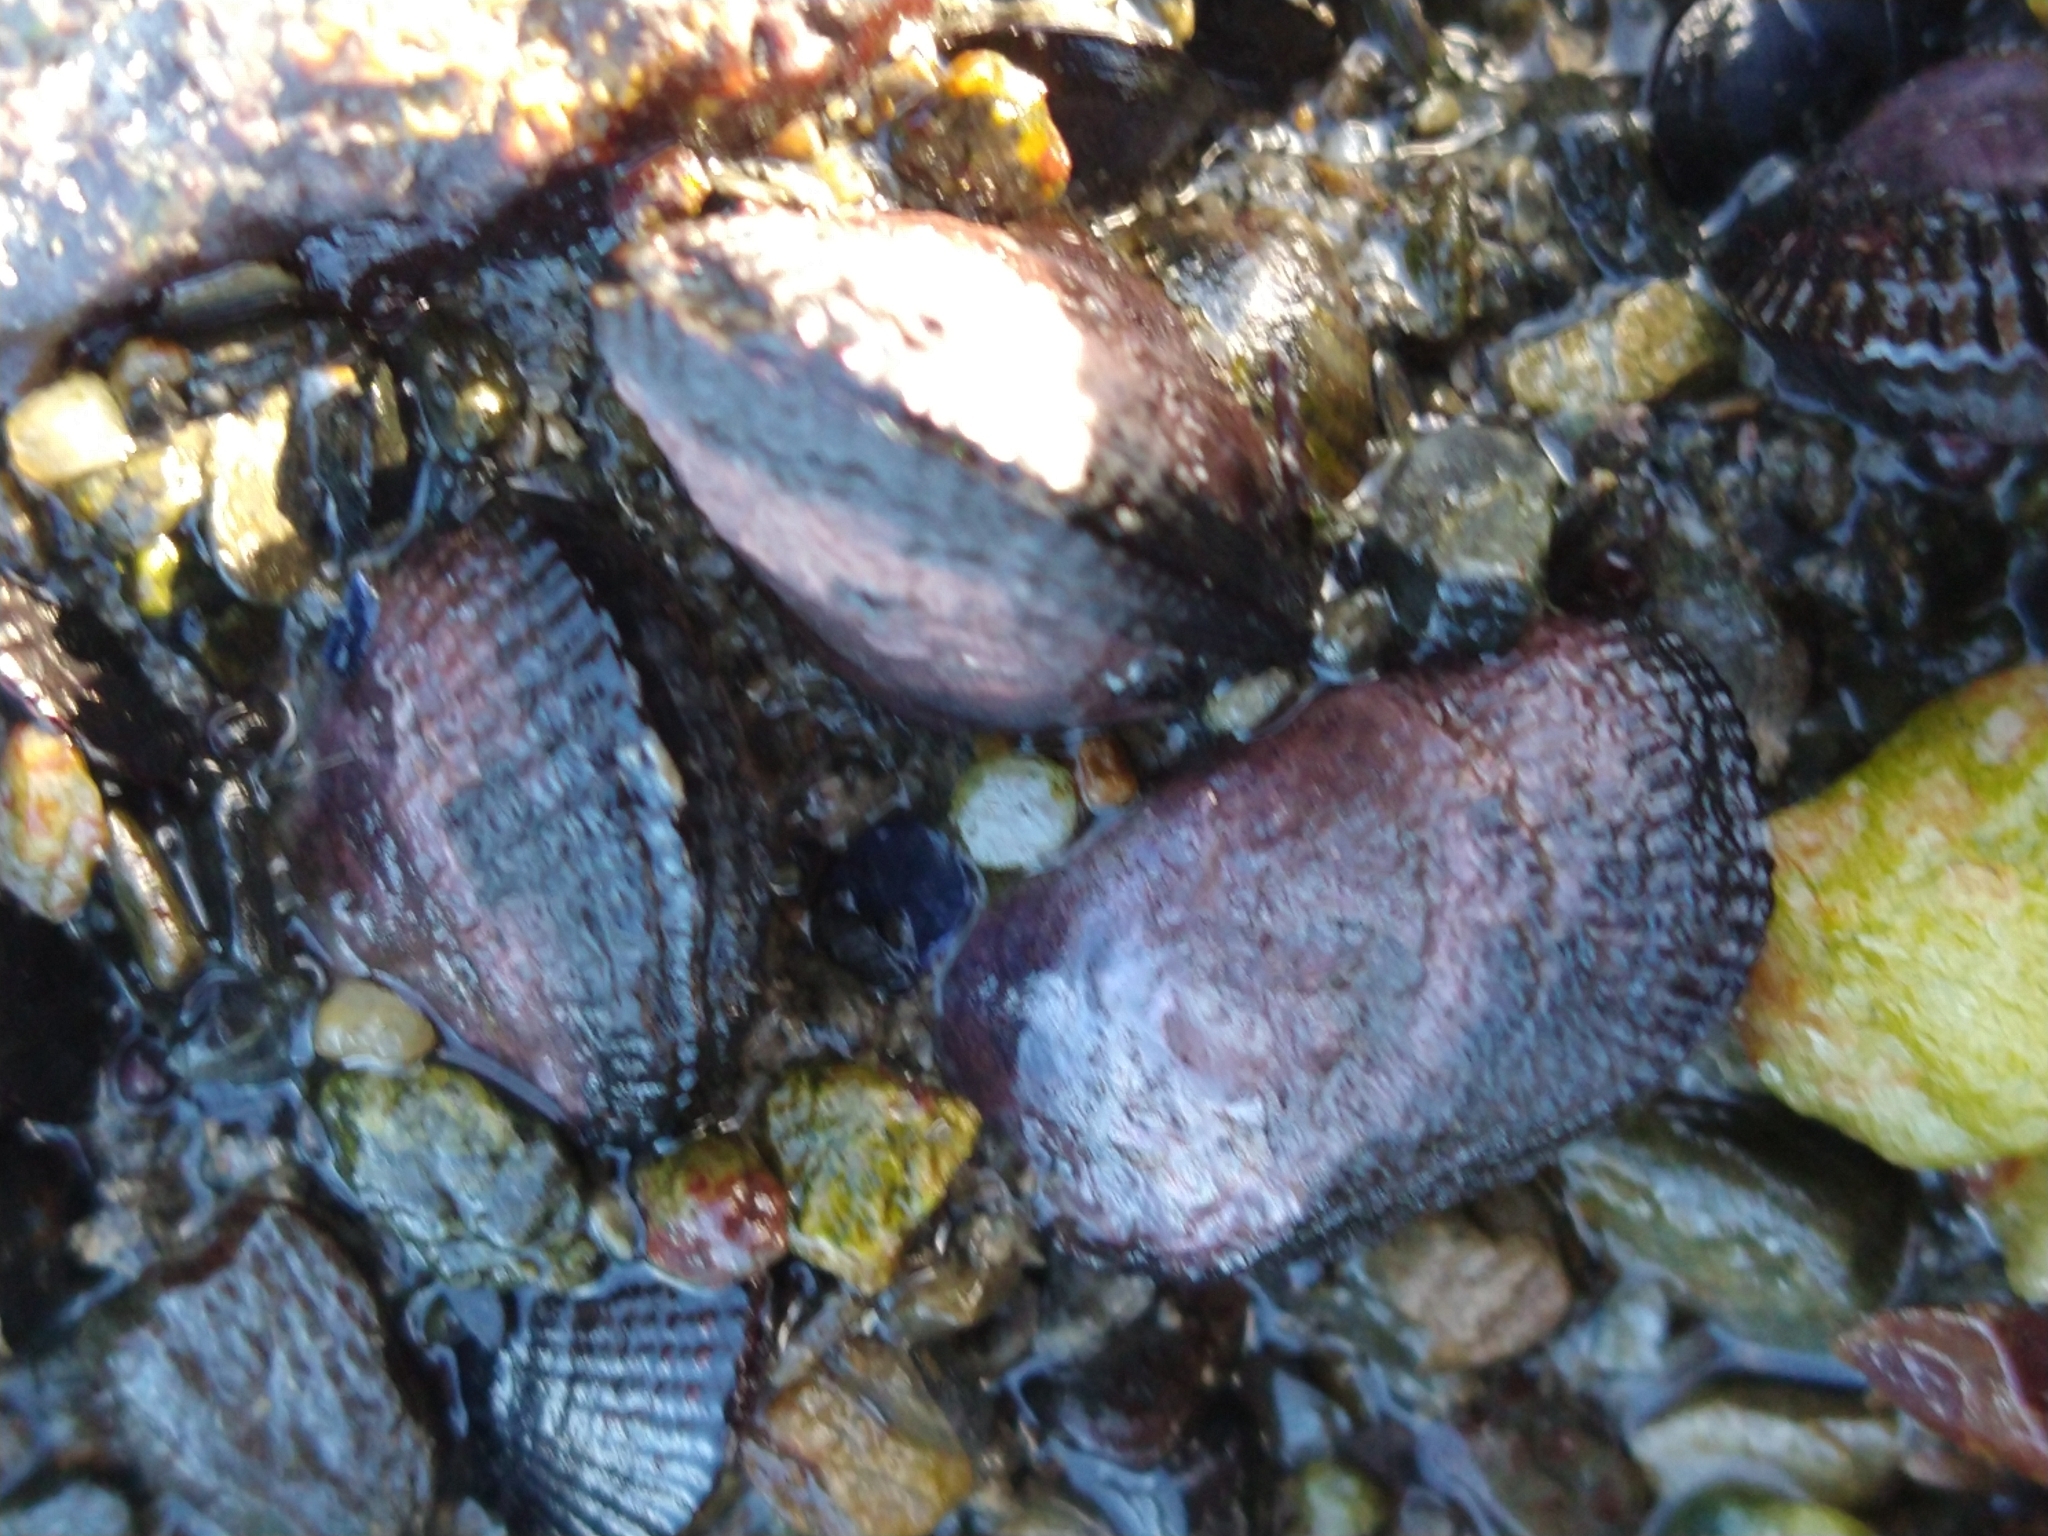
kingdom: Animalia
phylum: Mollusca
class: Bivalvia
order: Mytilida
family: Mytilidae
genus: Perumytilus
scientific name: Perumytilus purpuratus
